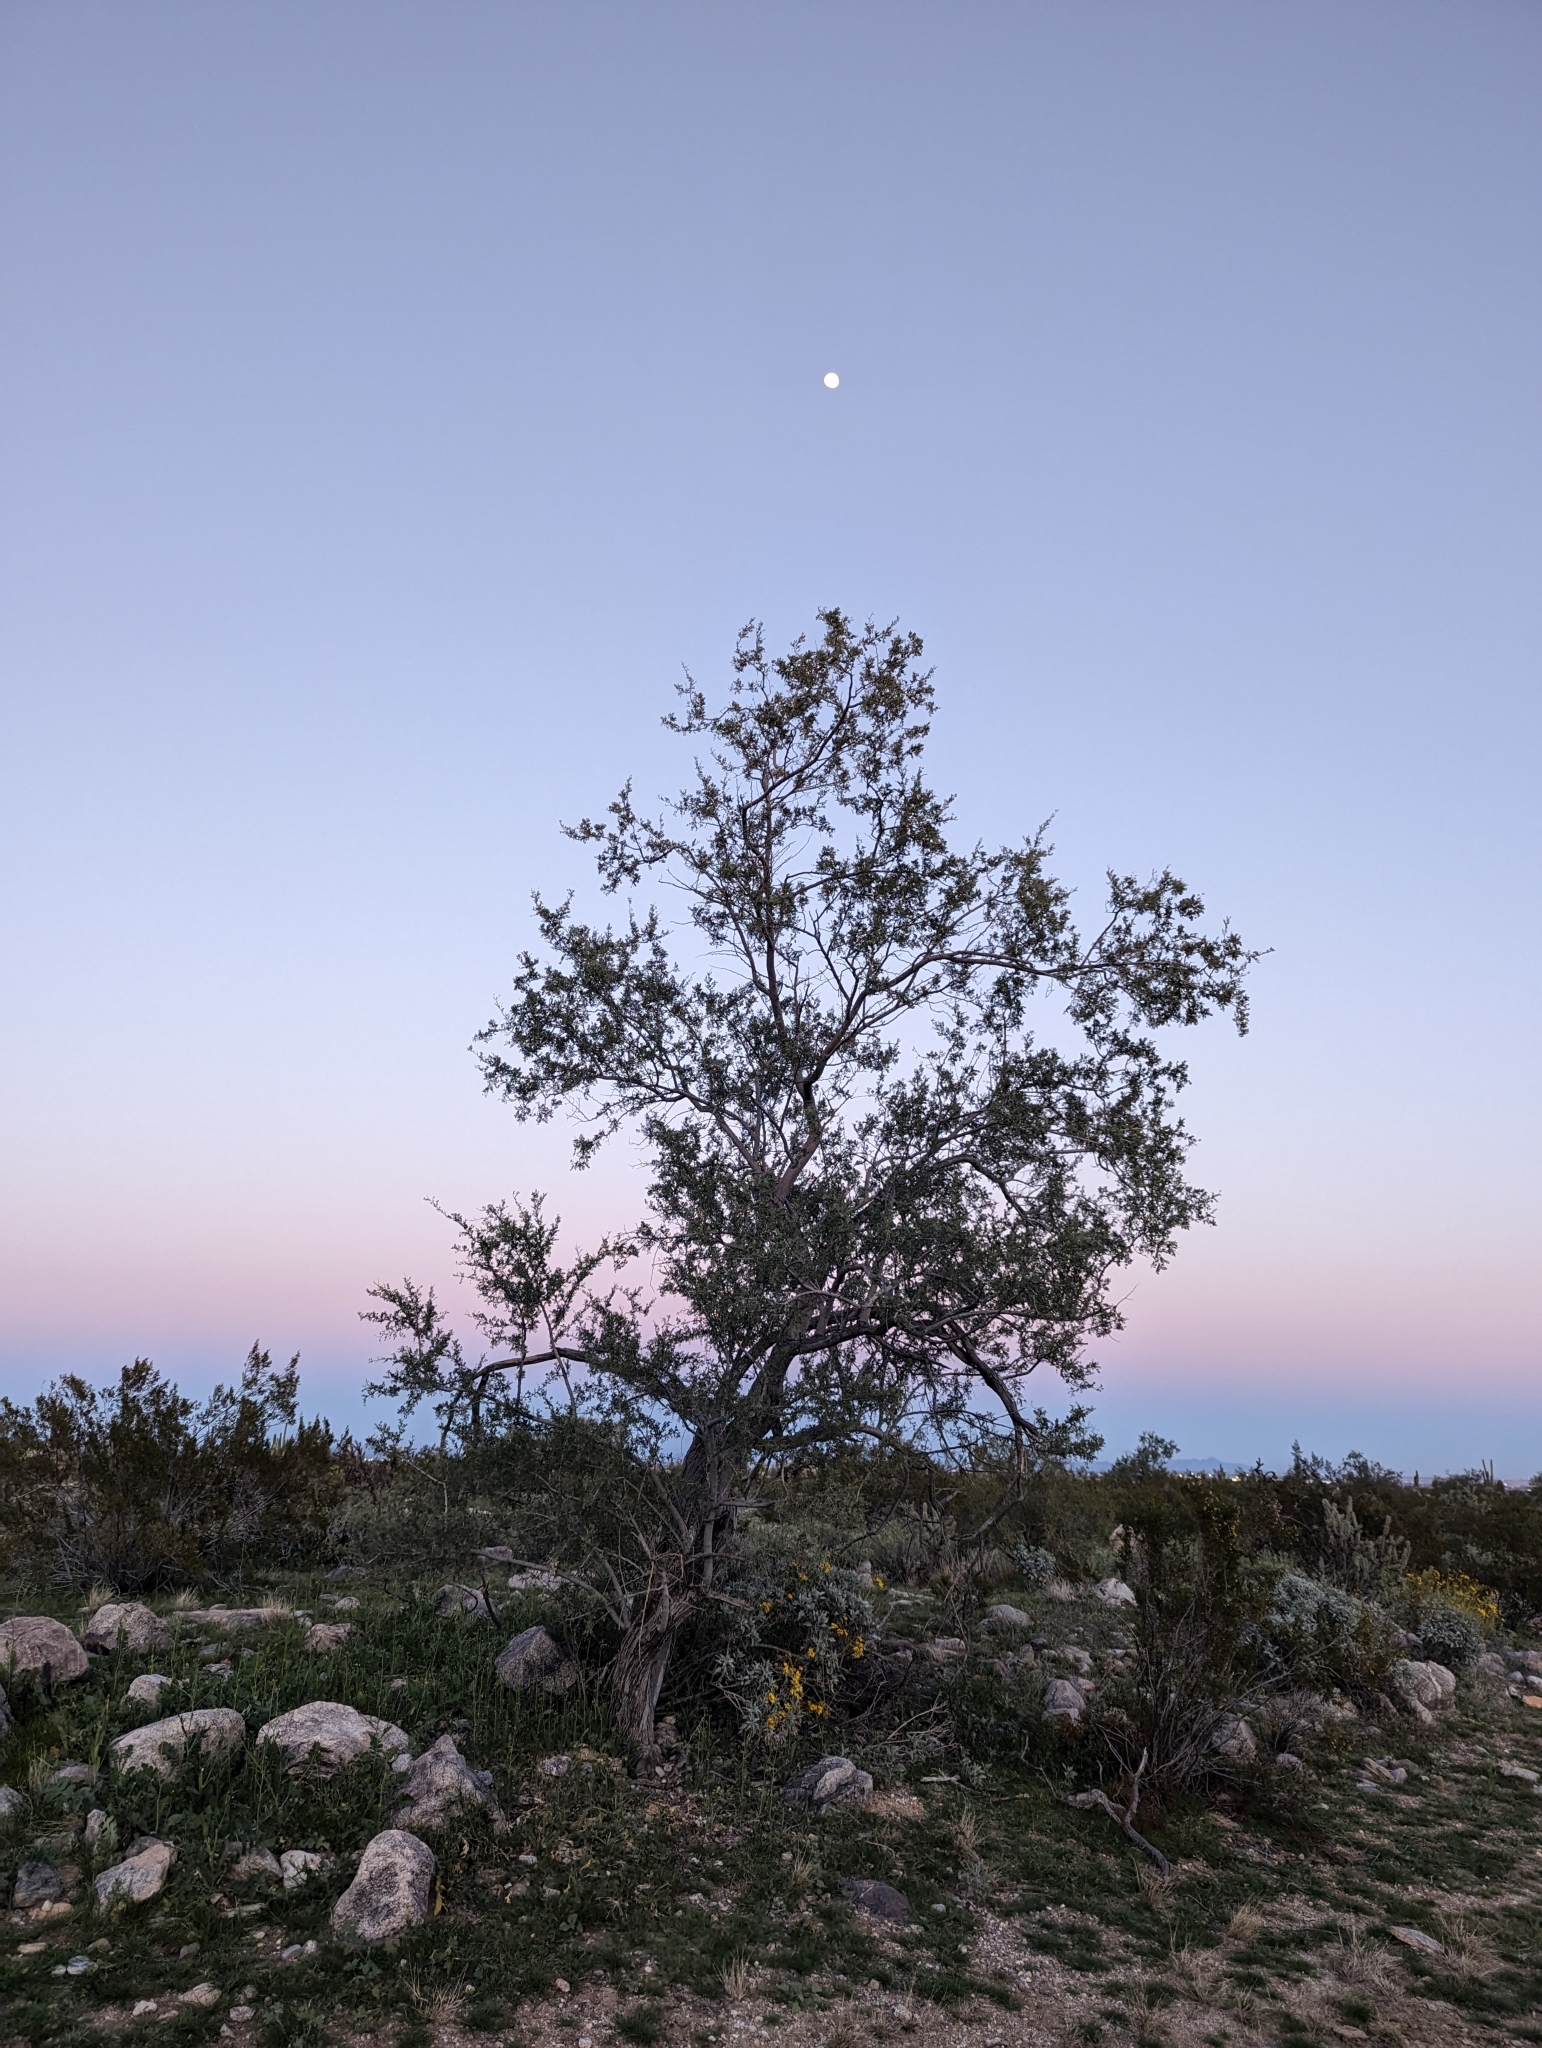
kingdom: Plantae
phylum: Tracheophyta
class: Magnoliopsida
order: Fabales
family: Fabaceae
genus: Olneya
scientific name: Olneya tesota
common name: Desert ironwood
